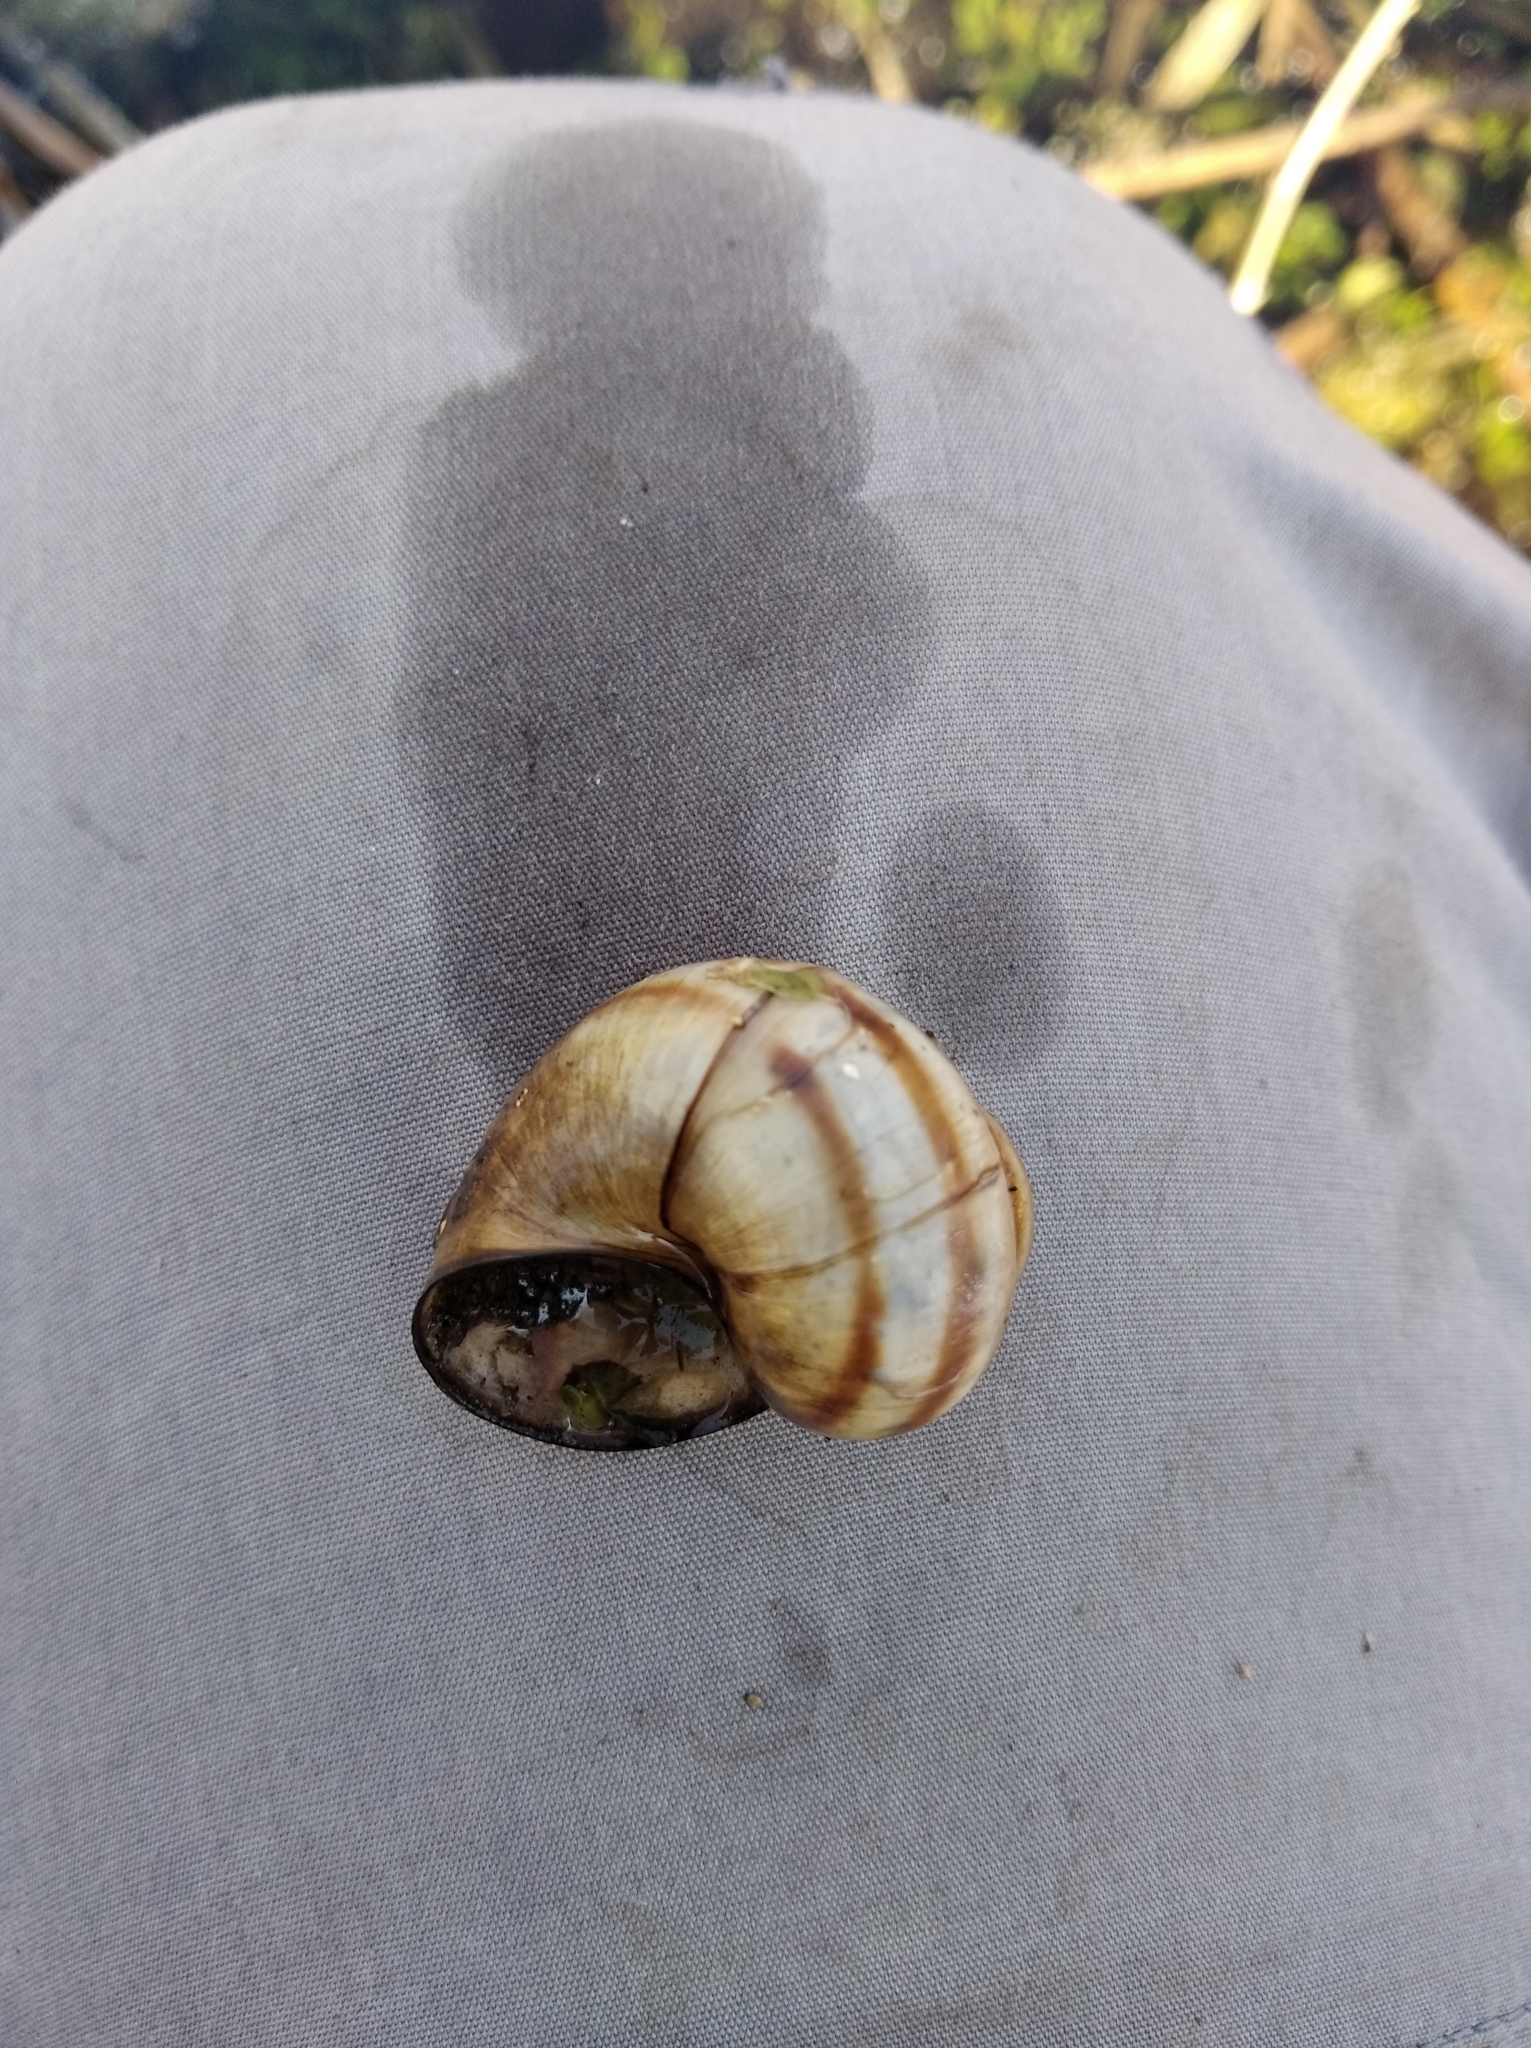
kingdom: Animalia
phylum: Mollusca
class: Gastropoda
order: Architaenioglossa
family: Viviparidae
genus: Viviparus
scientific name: Viviparus contectus
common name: Lister's river snail
